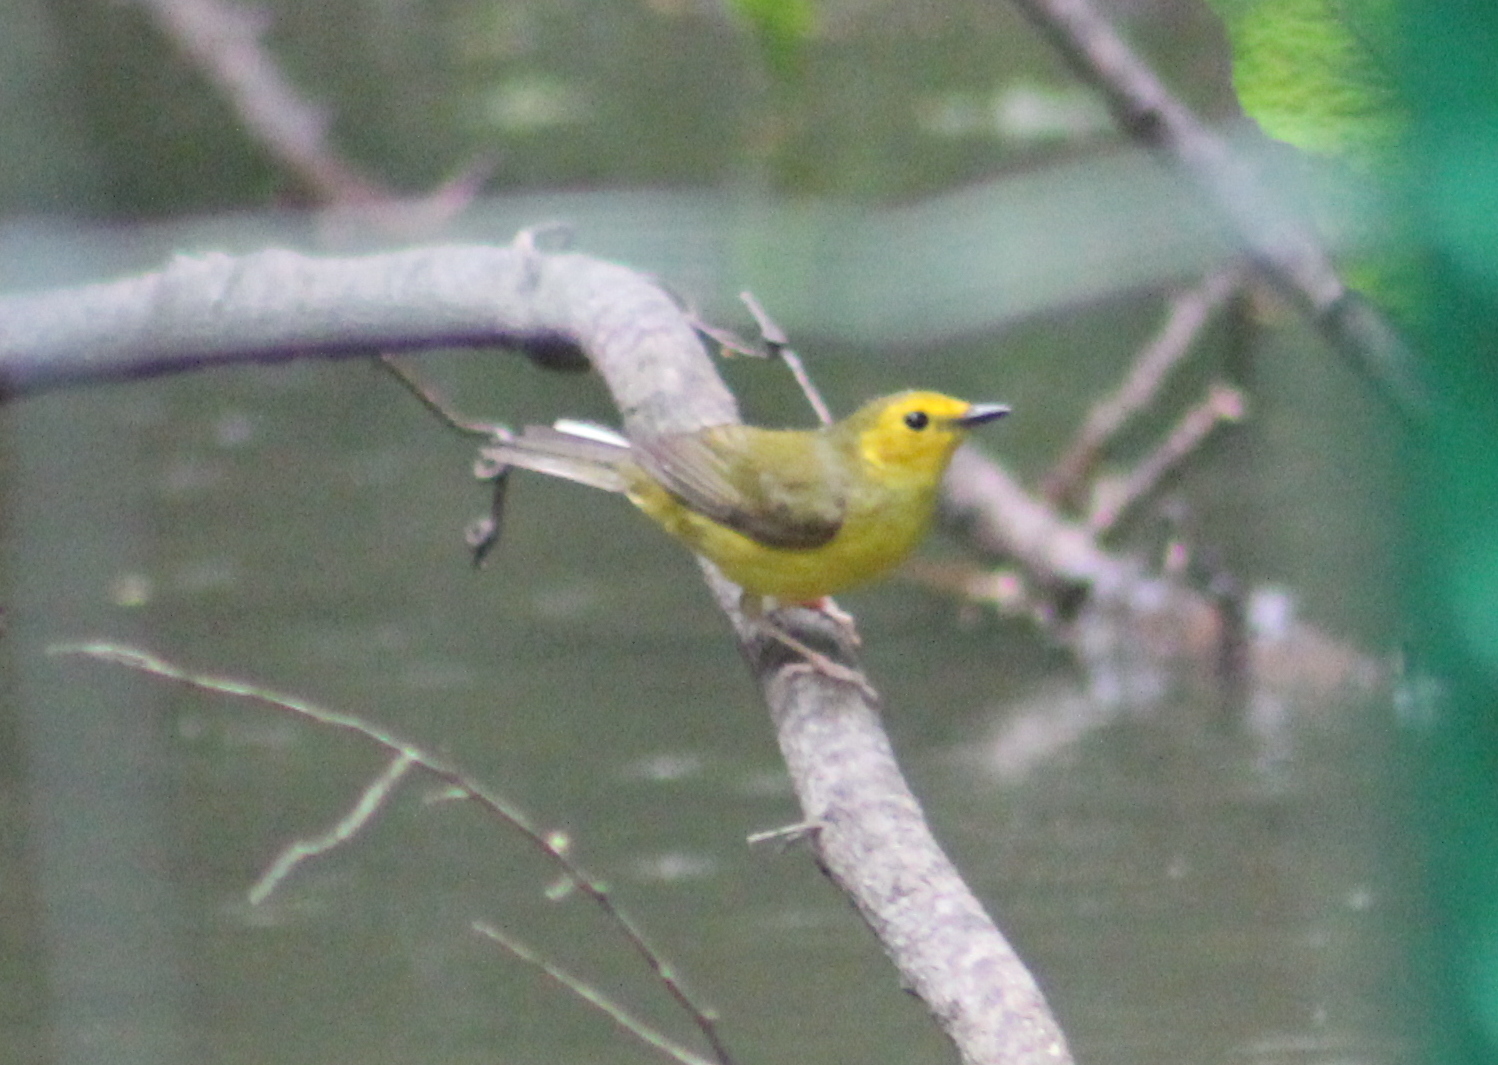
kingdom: Animalia
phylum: Chordata
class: Aves
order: Passeriformes
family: Parulidae
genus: Setophaga
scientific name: Setophaga citrina
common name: Hooded warbler
